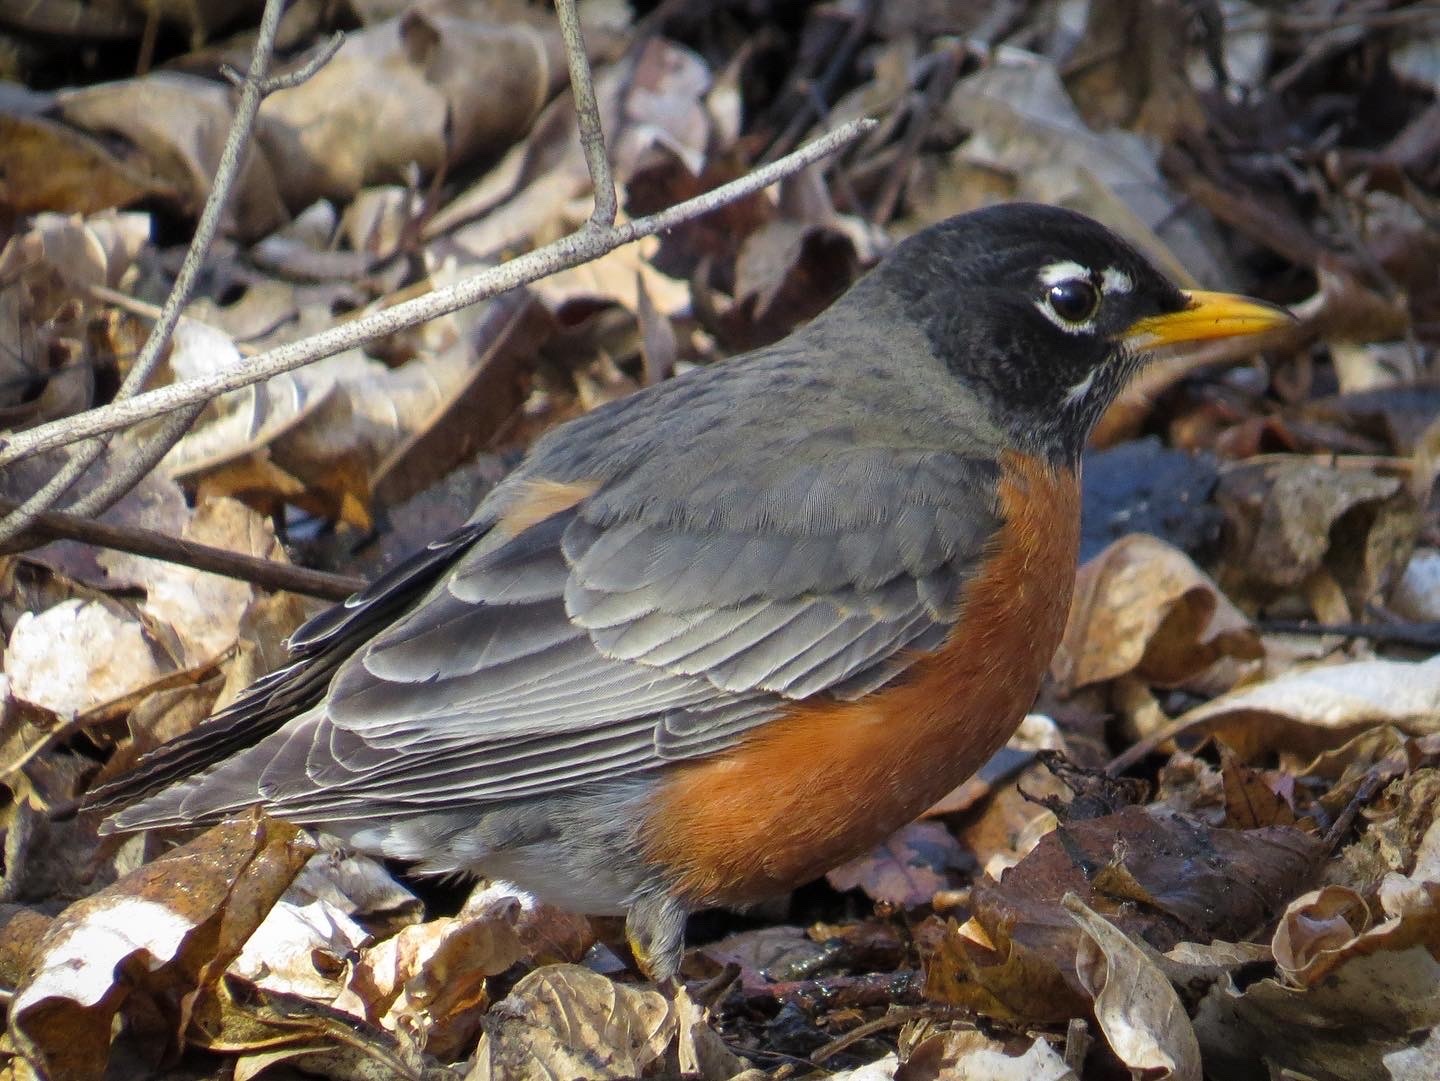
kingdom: Animalia
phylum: Chordata
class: Aves
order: Passeriformes
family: Turdidae
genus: Turdus
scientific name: Turdus migratorius
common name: American robin
